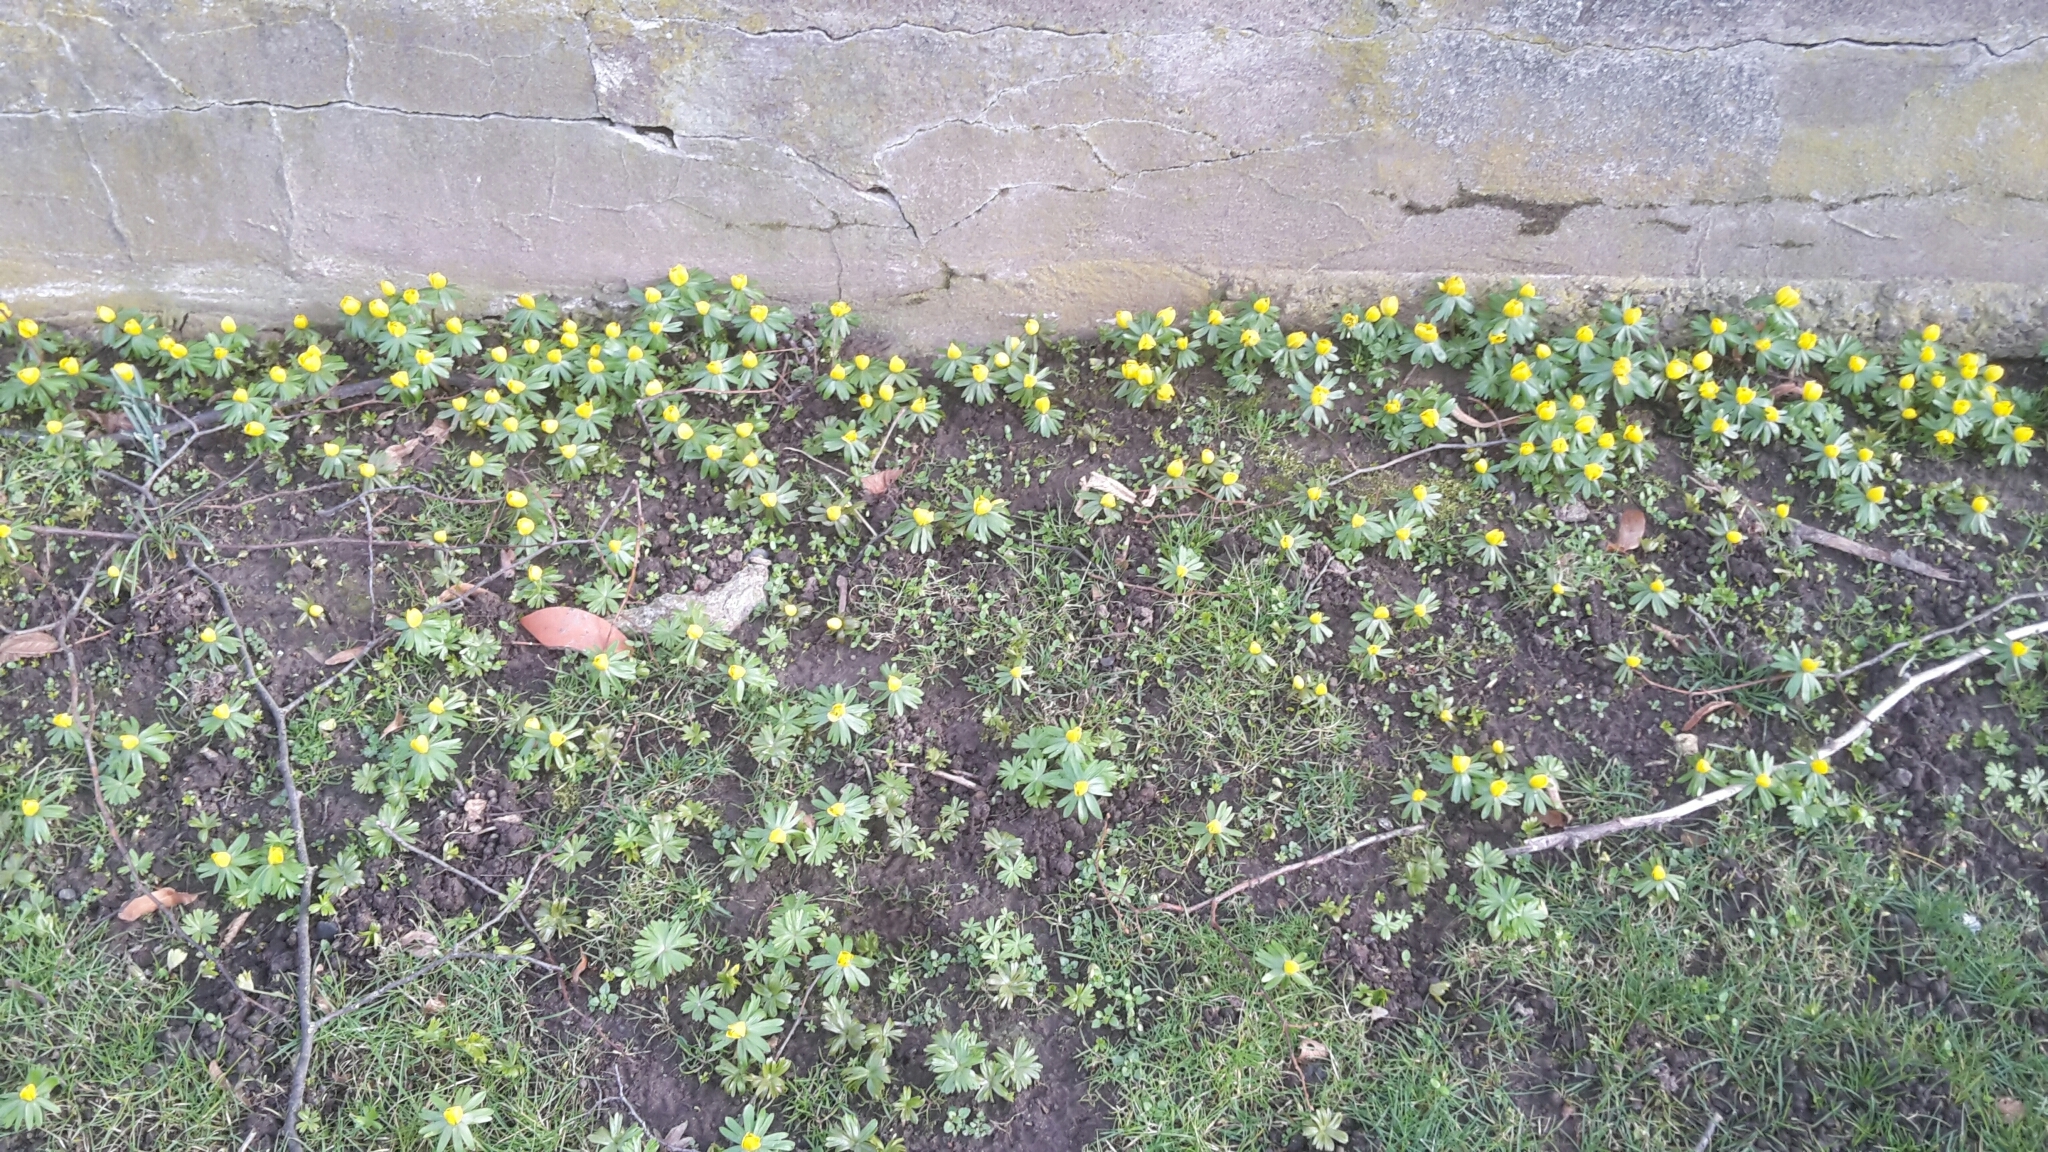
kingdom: Plantae
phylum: Tracheophyta
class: Magnoliopsida
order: Ranunculales
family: Ranunculaceae
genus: Eranthis
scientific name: Eranthis hyemalis
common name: Winter aconite
